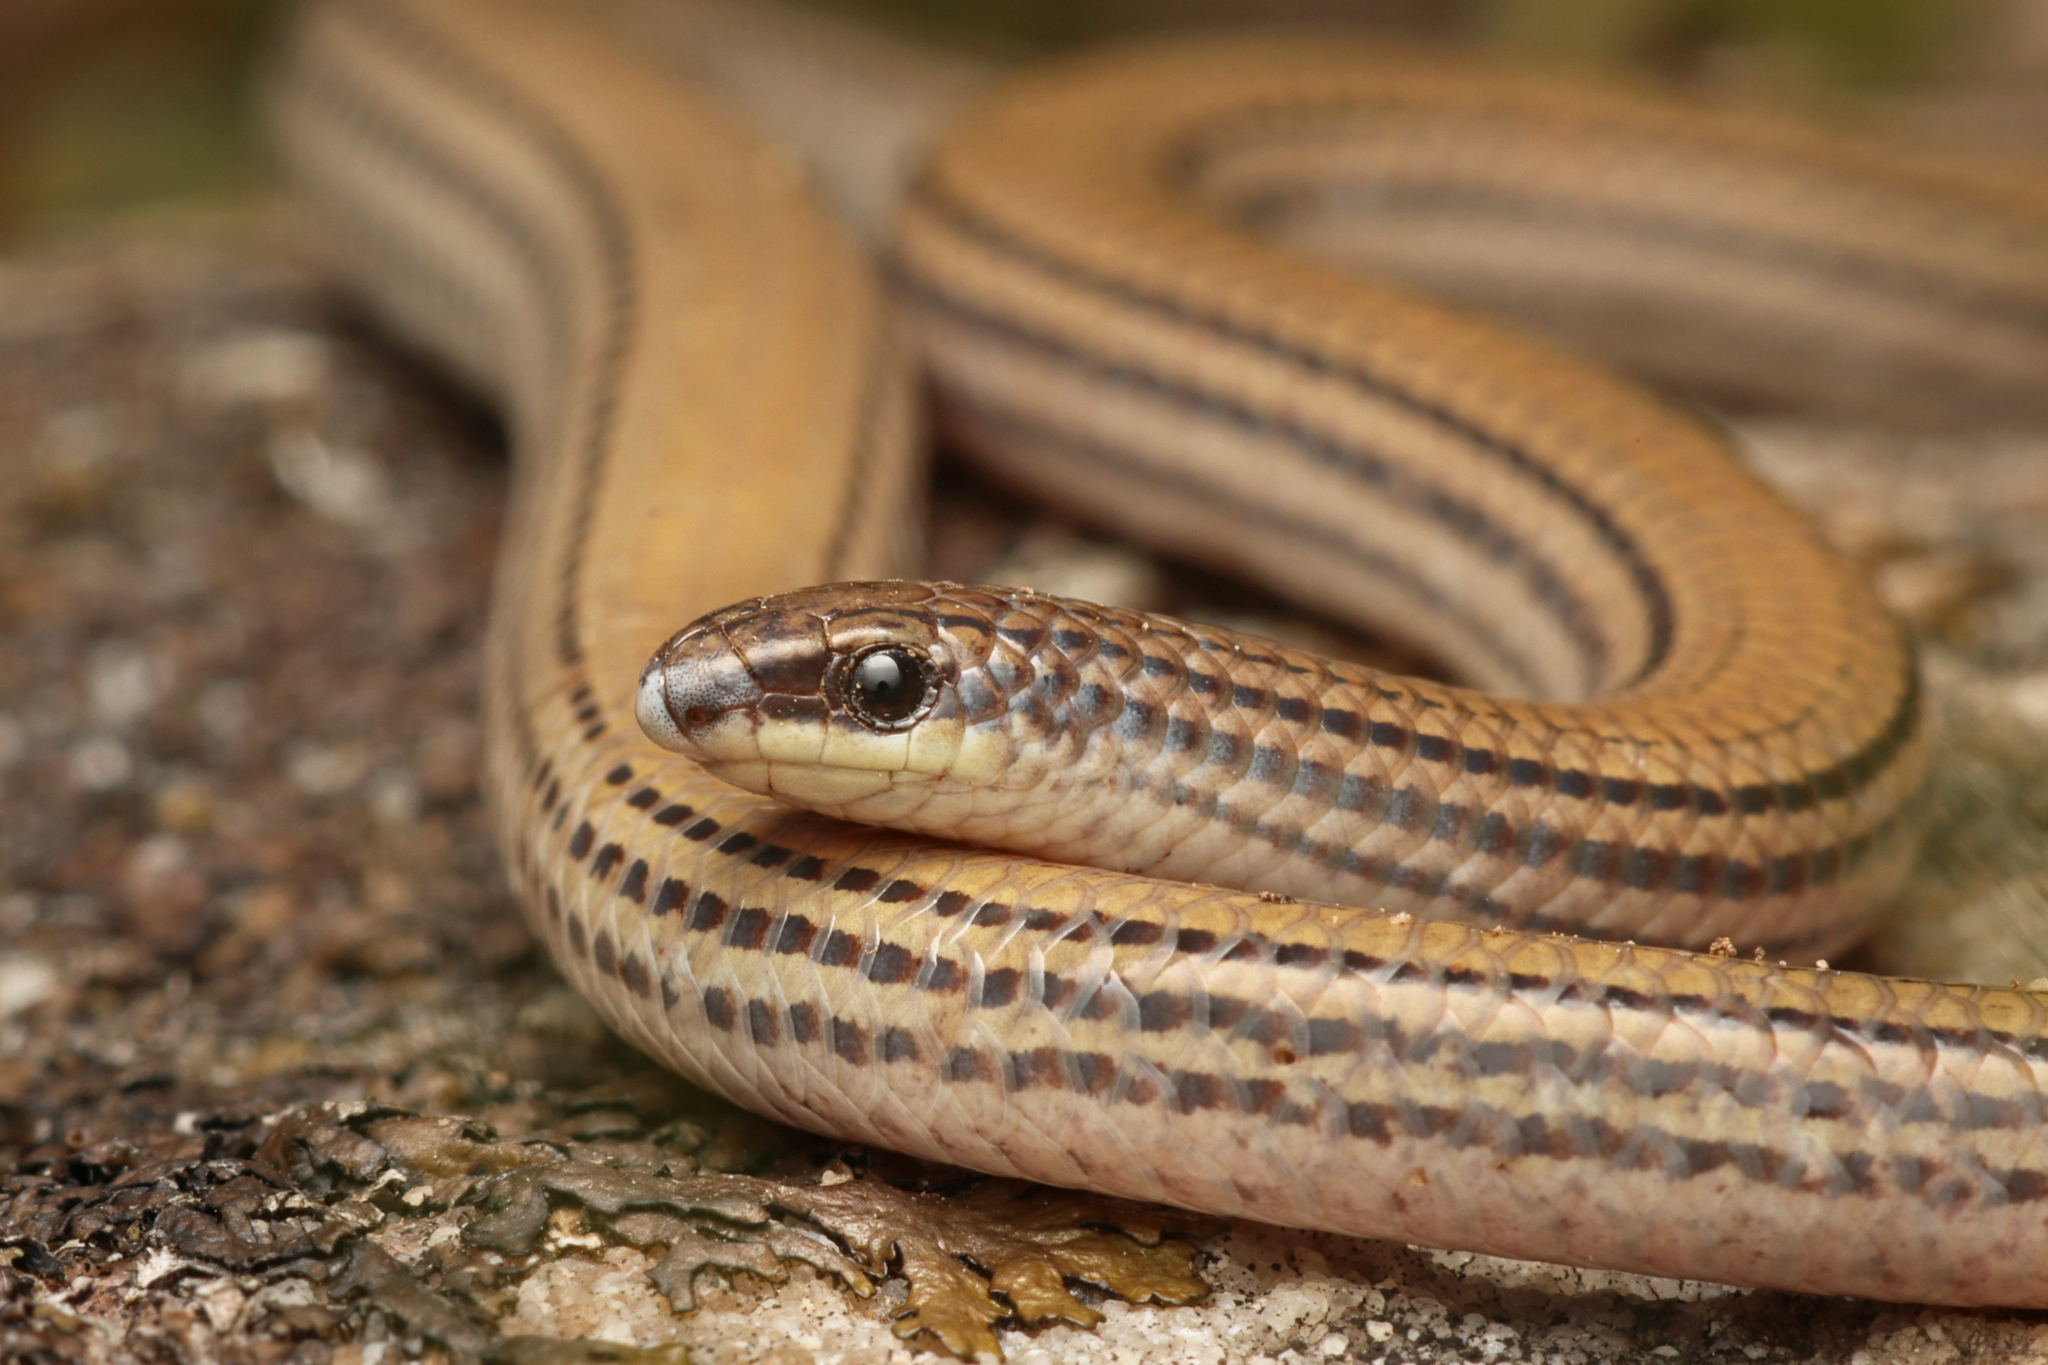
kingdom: Animalia
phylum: Chordata
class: Squamata
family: Pygopodidae
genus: Aprasia
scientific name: Aprasia striolata
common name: Striated worm-lizard
